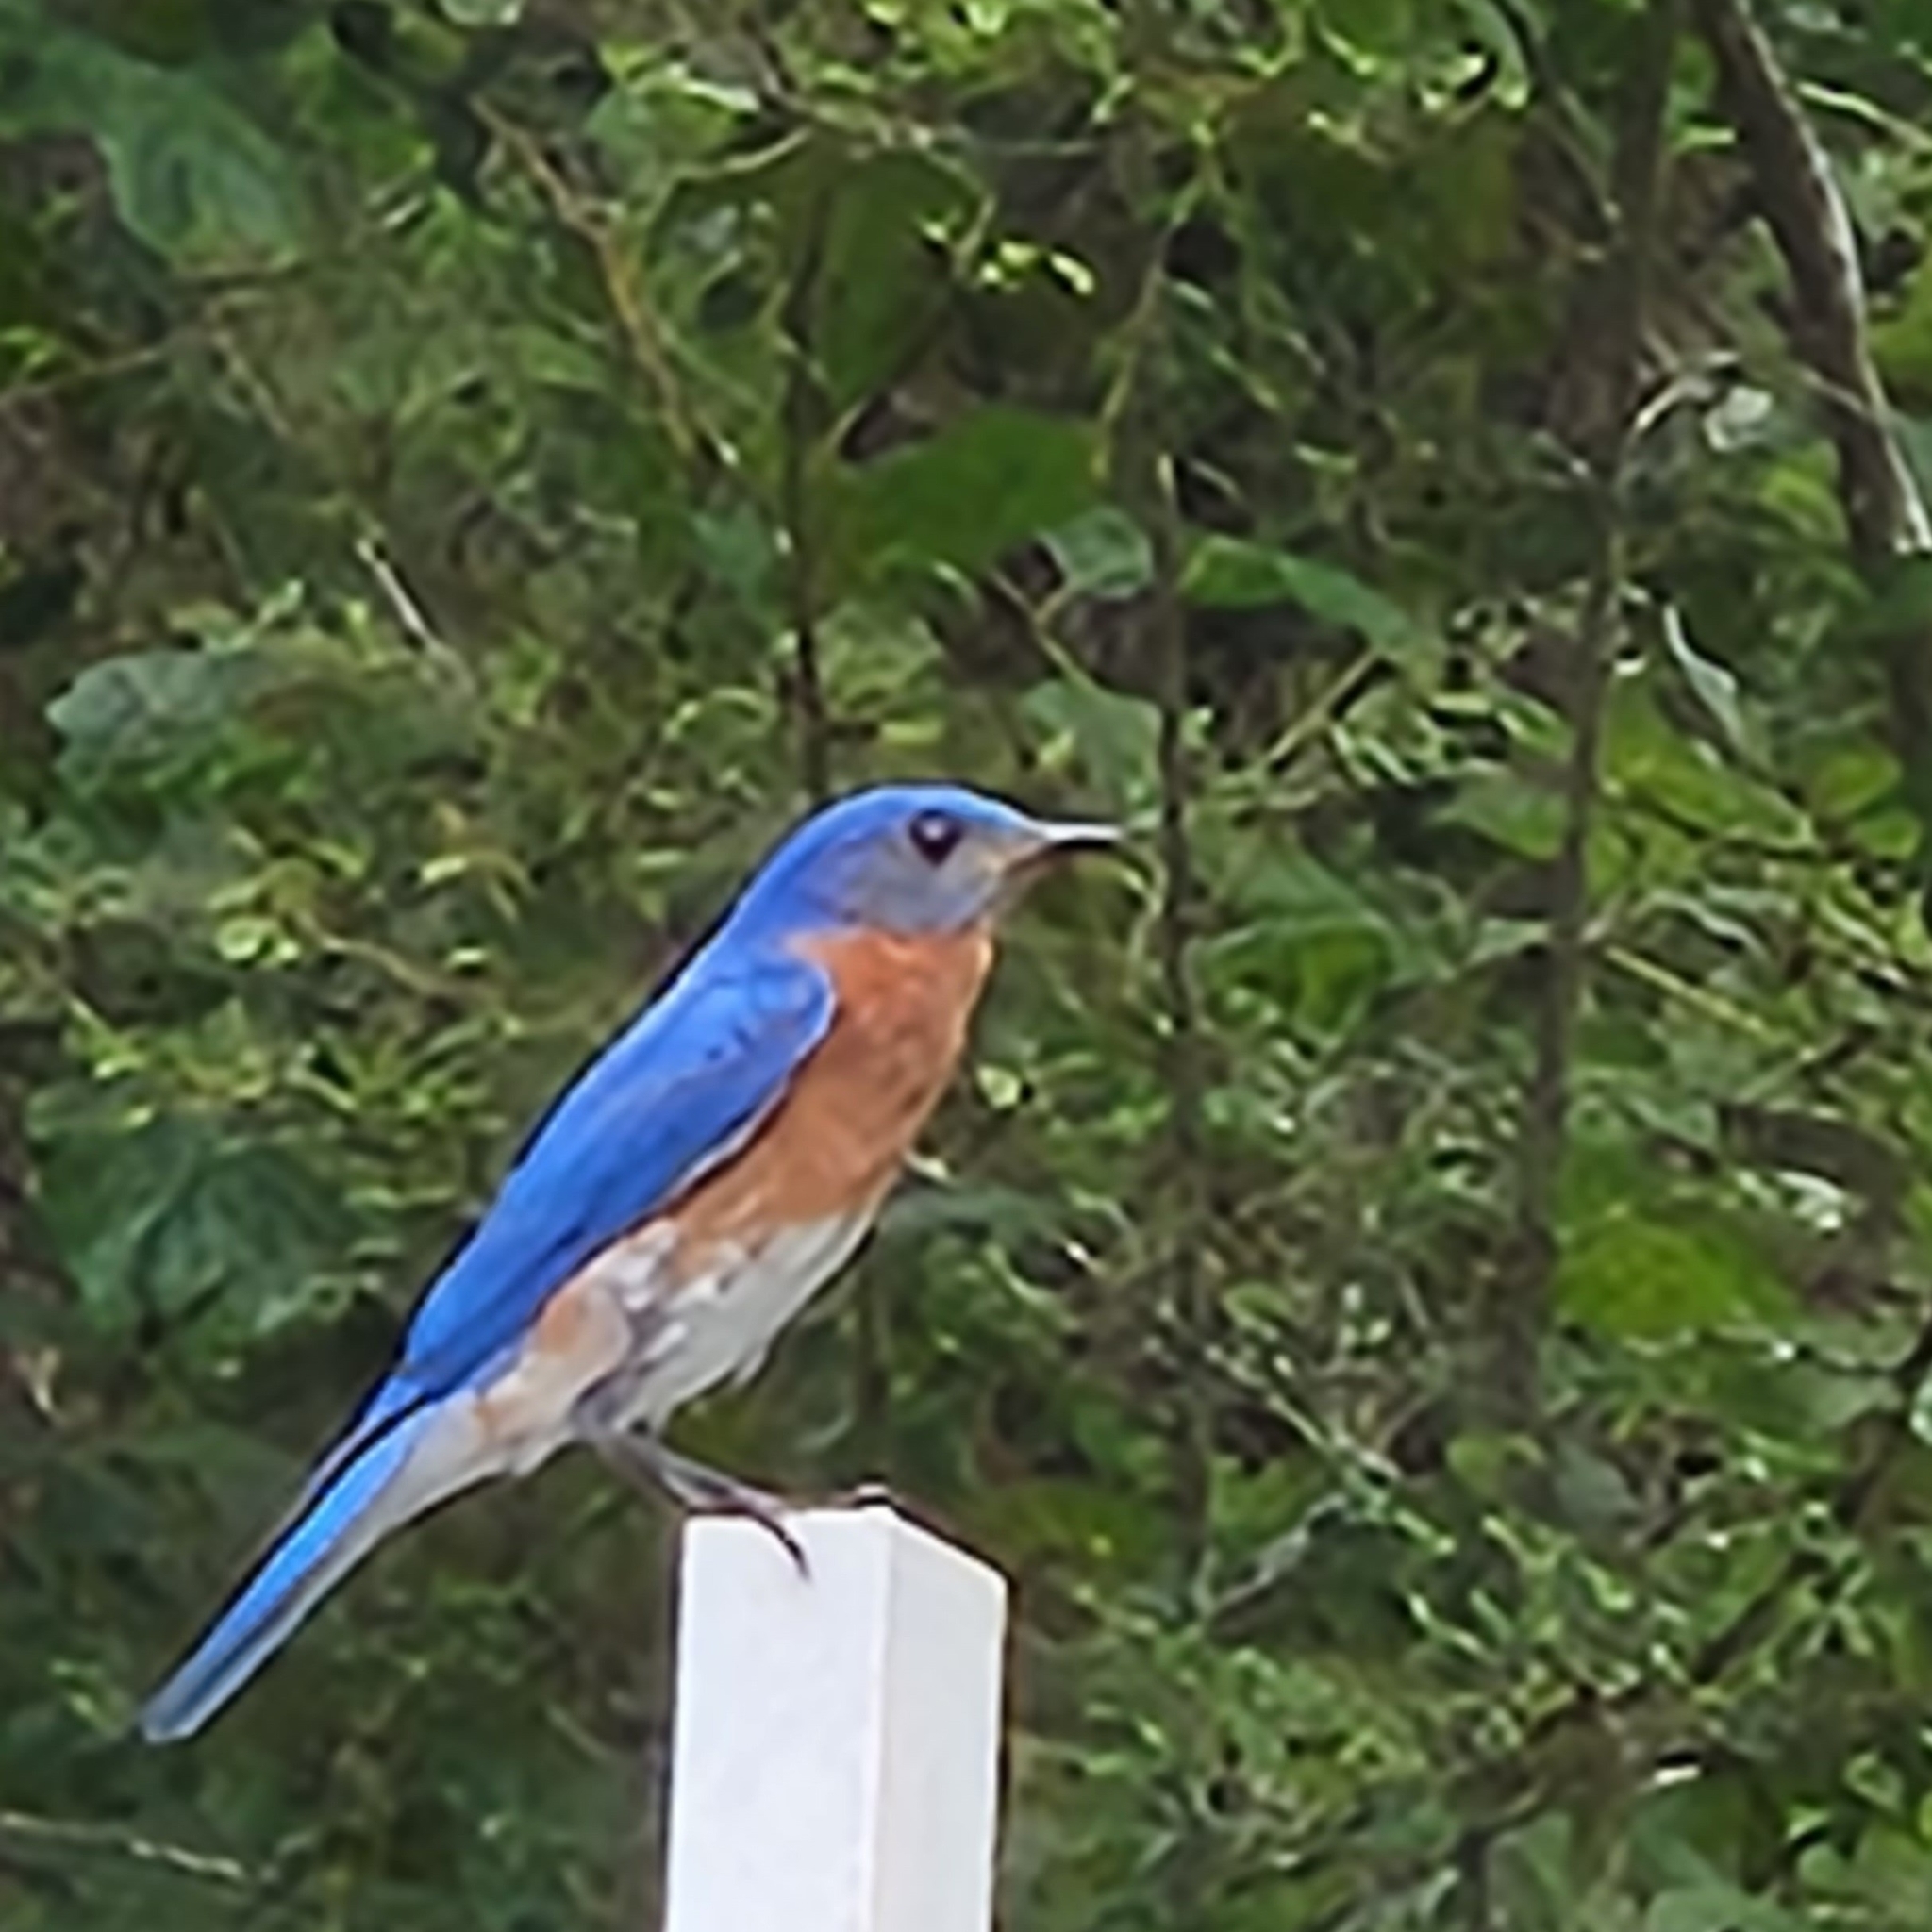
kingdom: Animalia
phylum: Chordata
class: Aves
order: Passeriformes
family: Turdidae
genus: Sialia
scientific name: Sialia sialis
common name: Eastern bluebird
